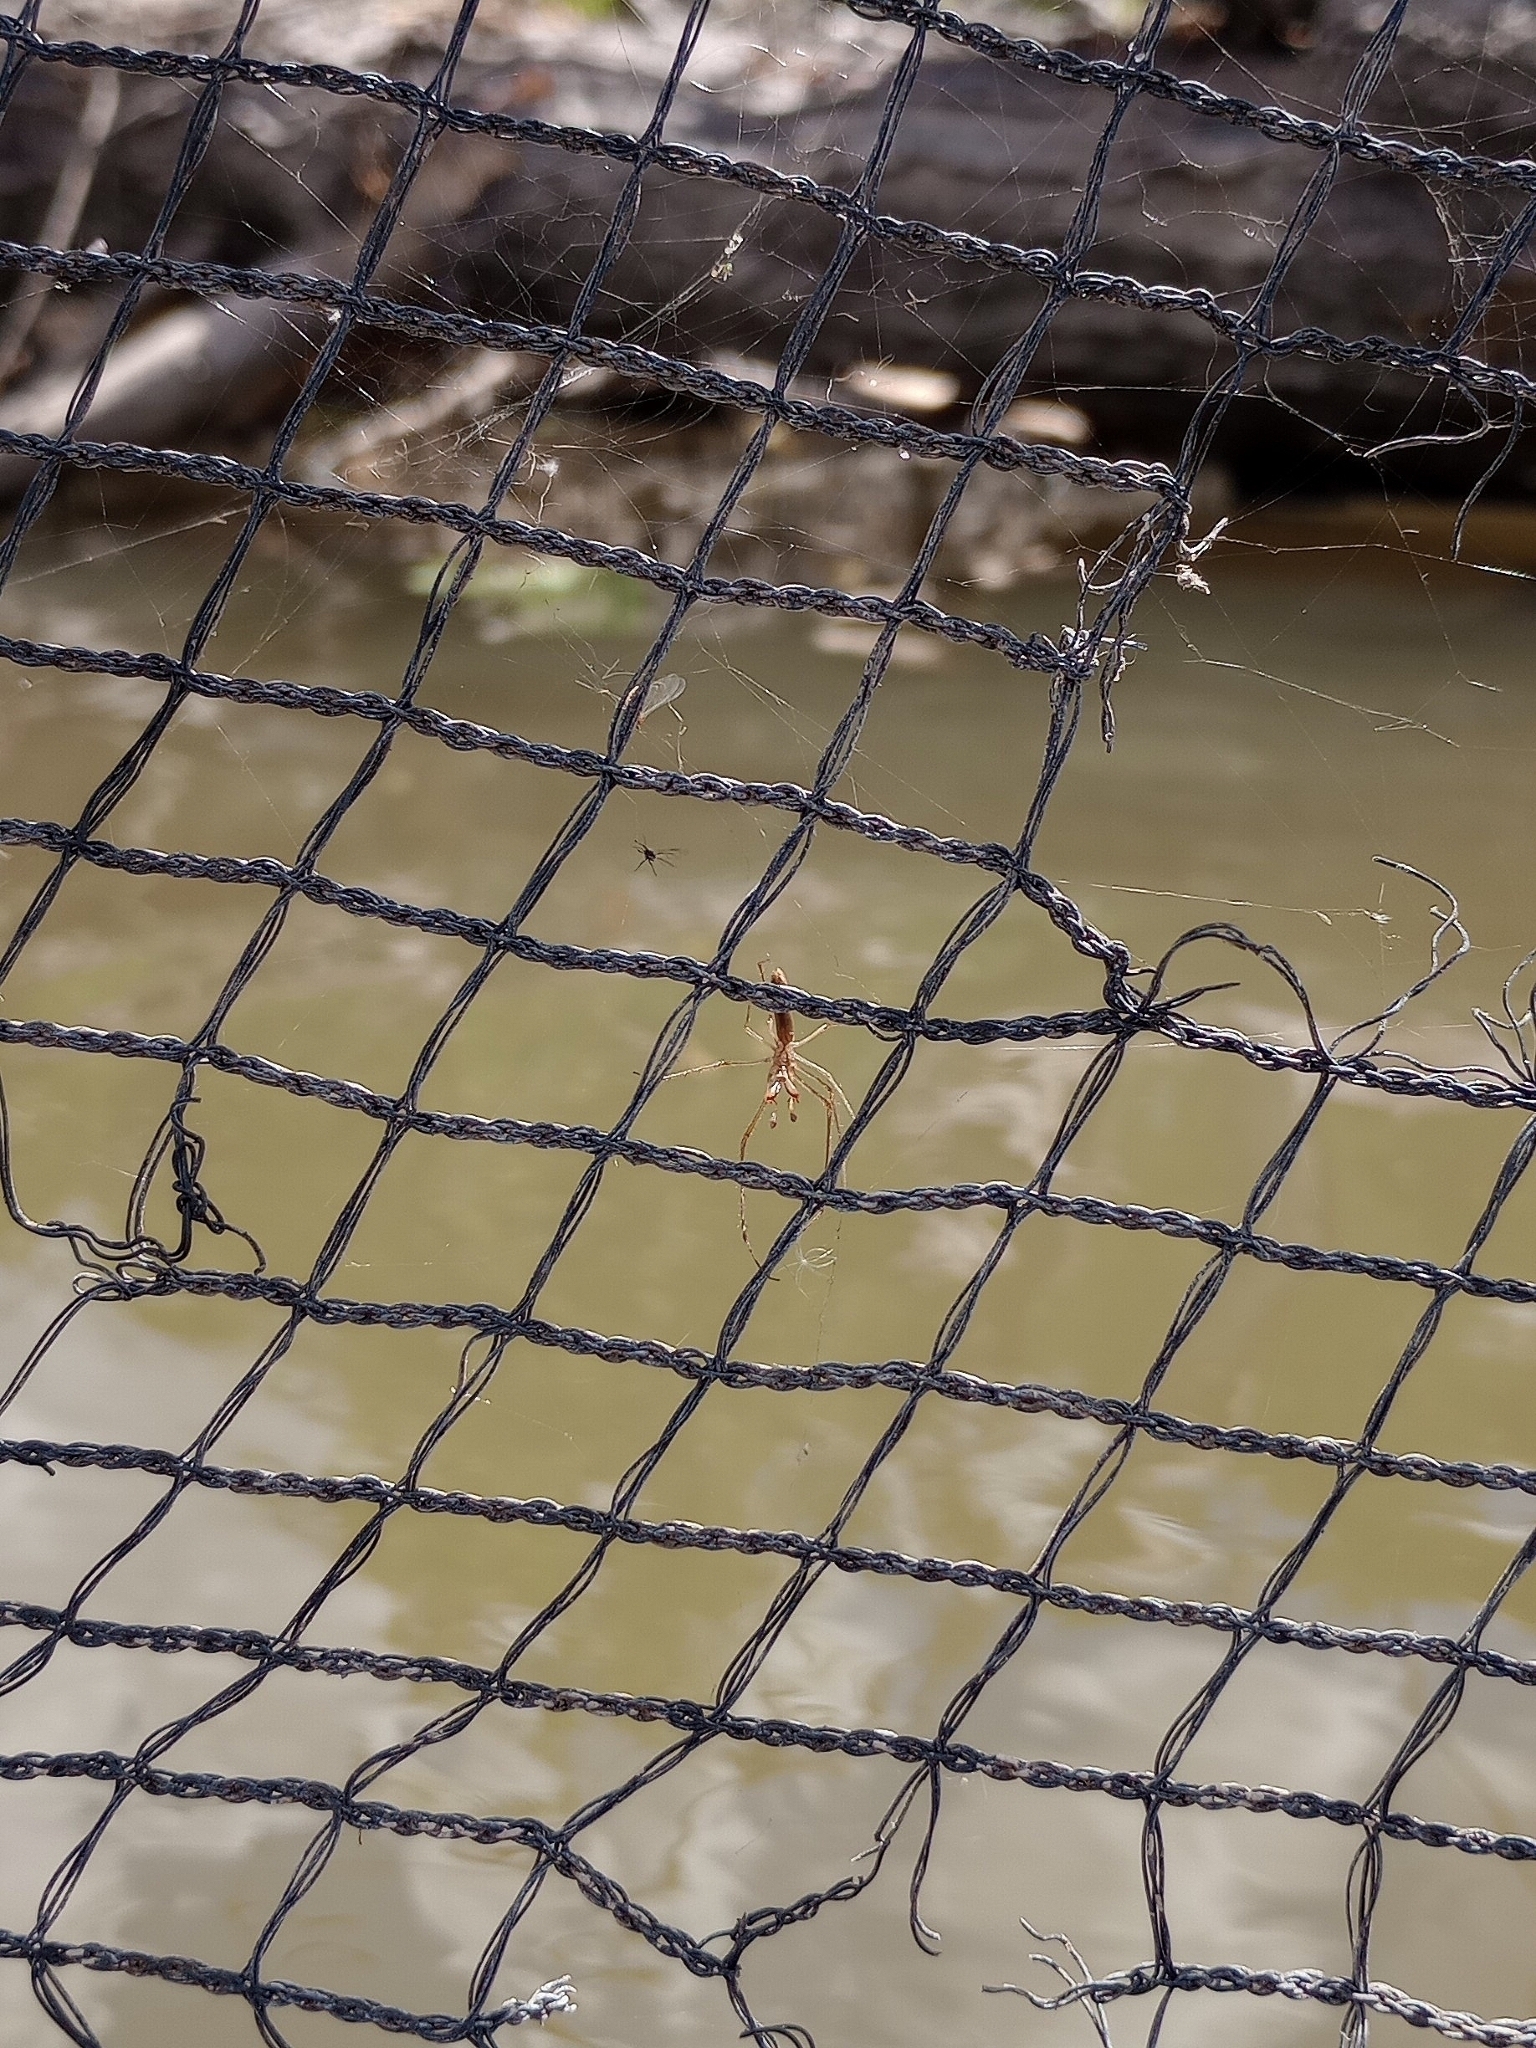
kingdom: Animalia
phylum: Arthropoda
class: Arachnida
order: Araneae
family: Tetragnathidae
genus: Tetragnatha
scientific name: Tetragnatha
